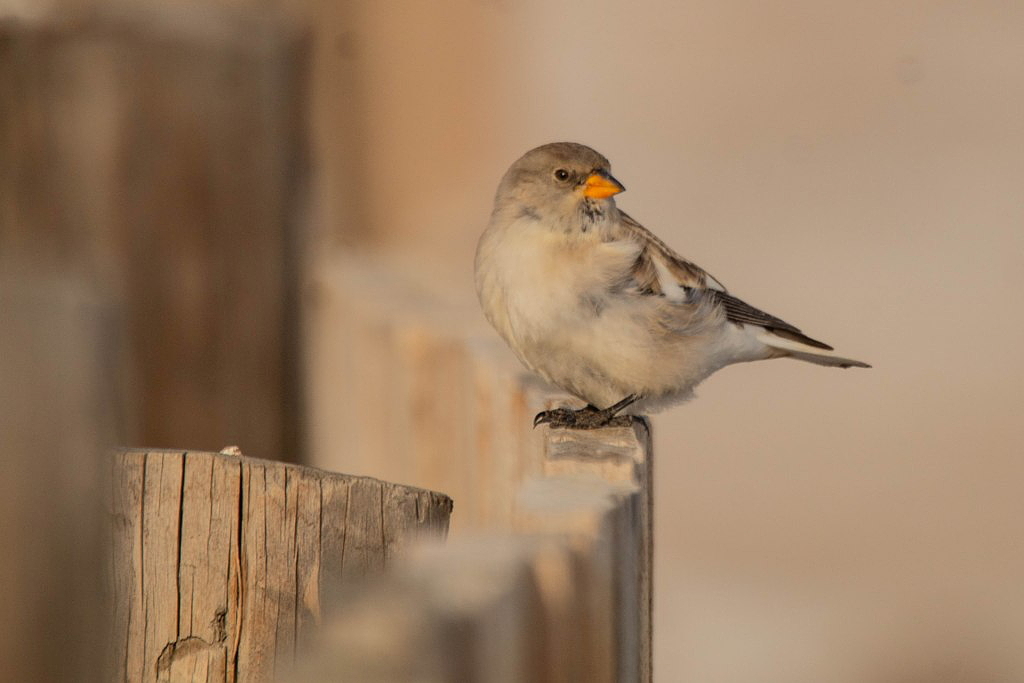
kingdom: Animalia
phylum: Chordata
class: Aves
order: Passeriformes
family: Passeridae
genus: Montifringilla
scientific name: Montifringilla nivalis
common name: White-winged snowfinch
